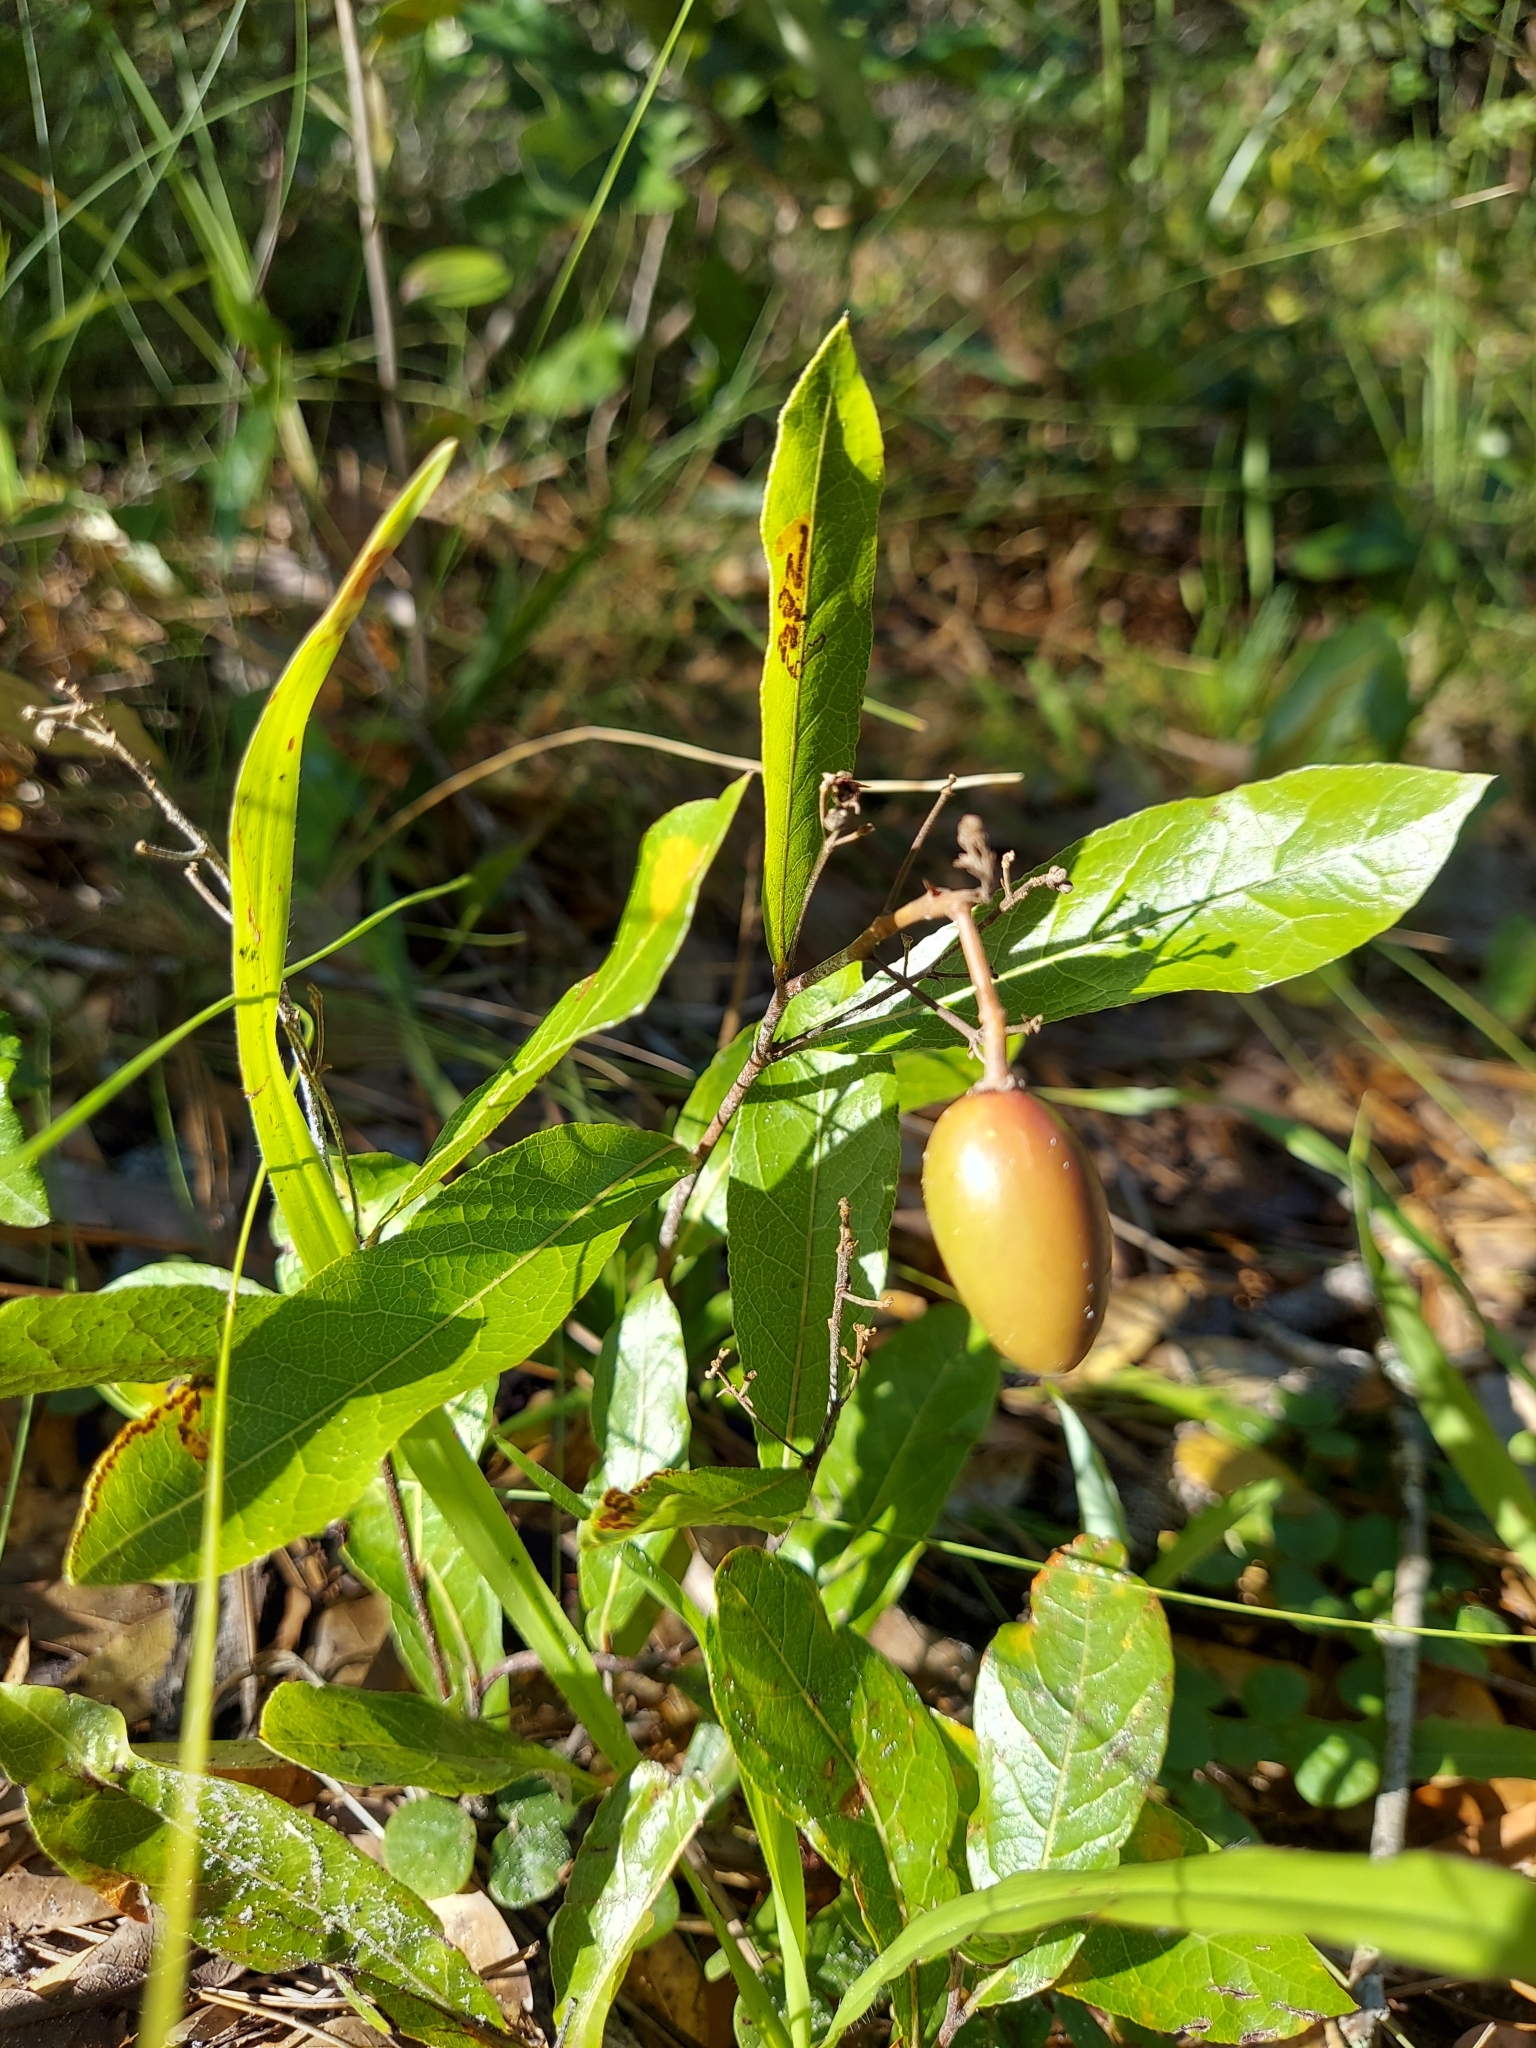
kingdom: Plantae
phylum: Tracheophyta
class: Magnoliopsida
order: Malpighiales
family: Chrysobalanaceae
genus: Geobalanus
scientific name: Geobalanus oblongifolius
